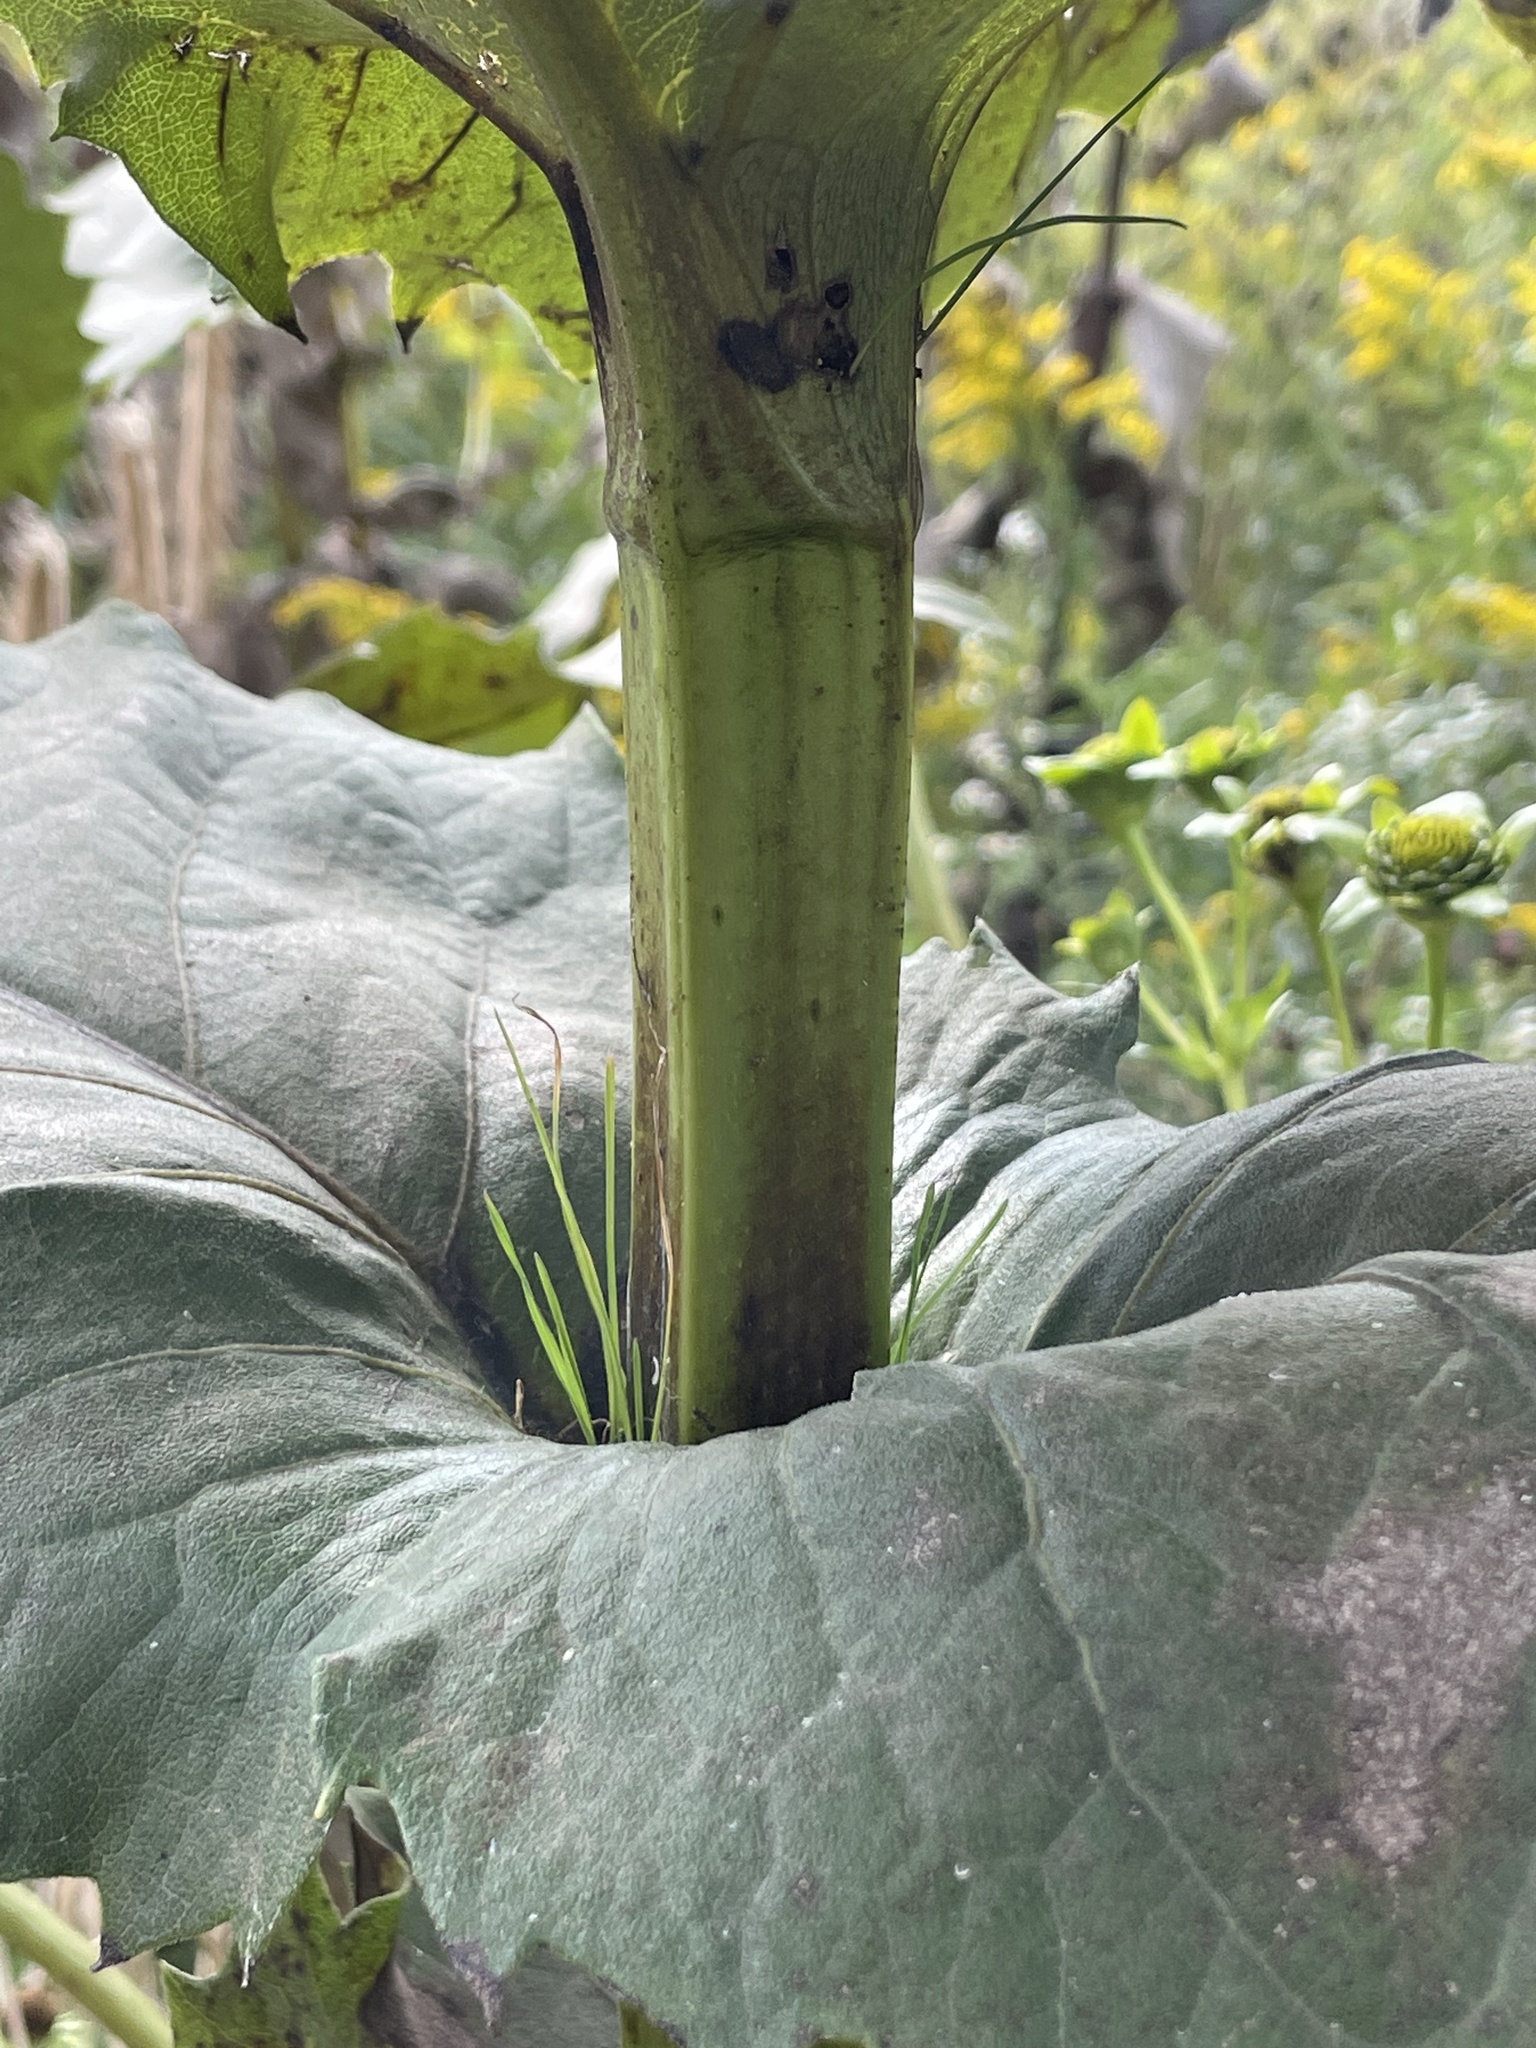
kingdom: Plantae
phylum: Tracheophyta
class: Magnoliopsida
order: Asterales
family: Asteraceae
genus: Silphium
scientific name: Silphium perfoliatum
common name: Cup-plant
